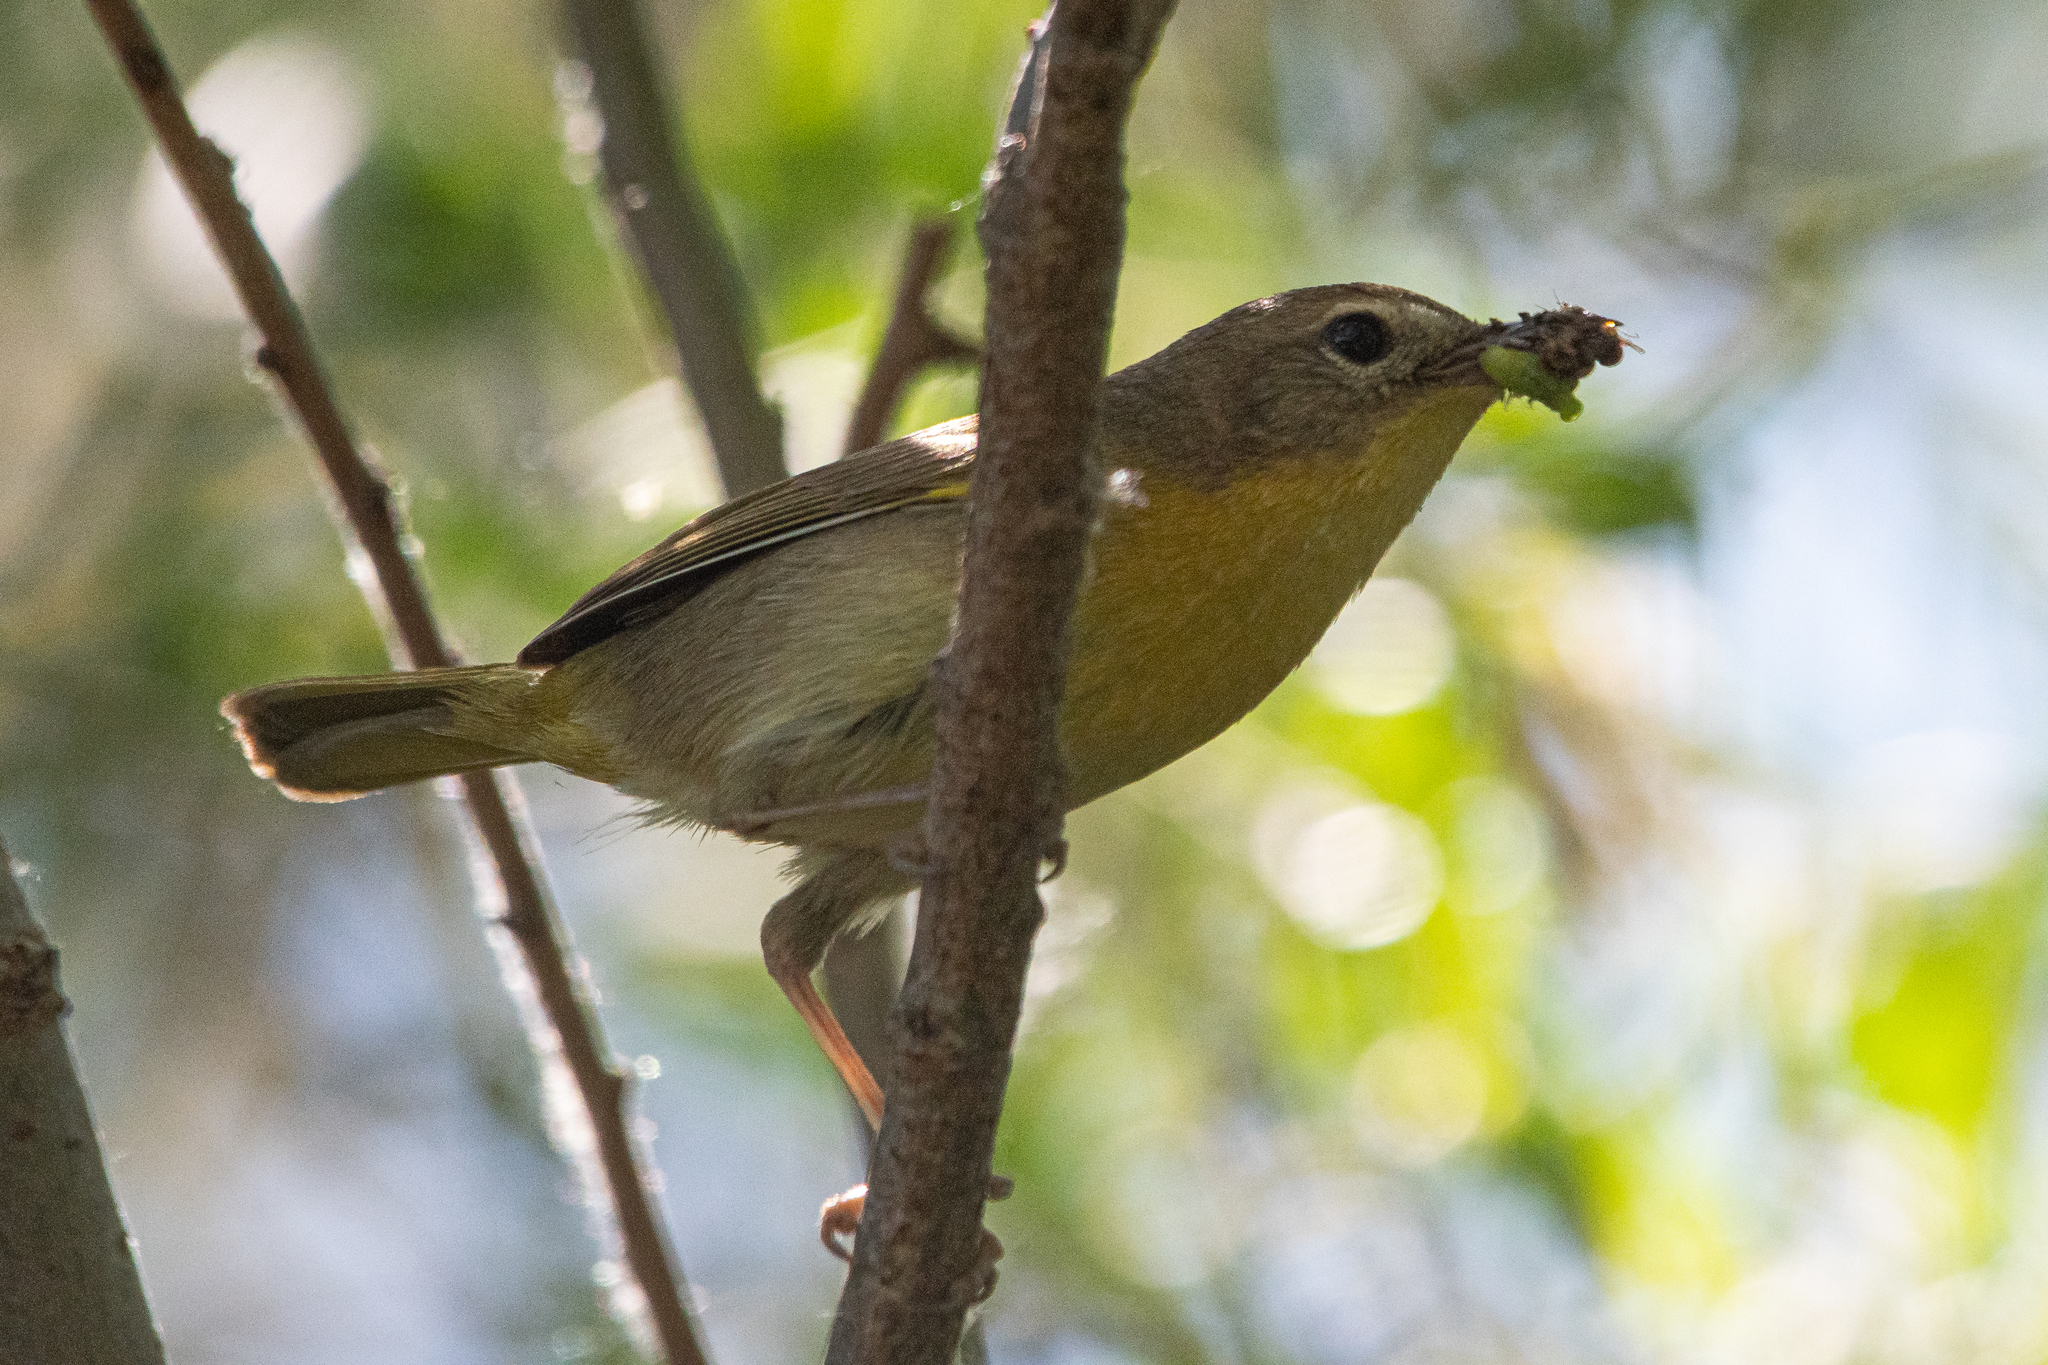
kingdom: Animalia
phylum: Chordata
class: Aves
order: Passeriformes
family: Parulidae
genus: Geothlypis
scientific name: Geothlypis trichas
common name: Common yellowthroat
